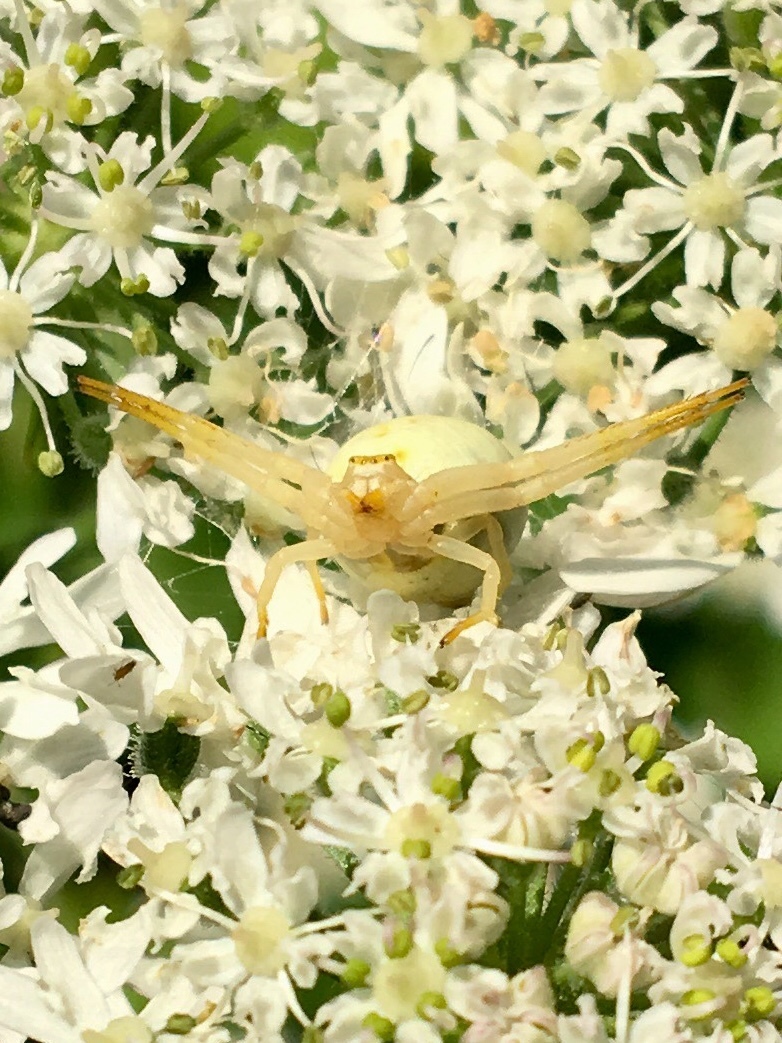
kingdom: Animalia
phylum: Arthropoda
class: Arachnida
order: Araneae
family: Thomisidae
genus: Misumena
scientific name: Misumena vatia
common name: Goldenrod crab spider
